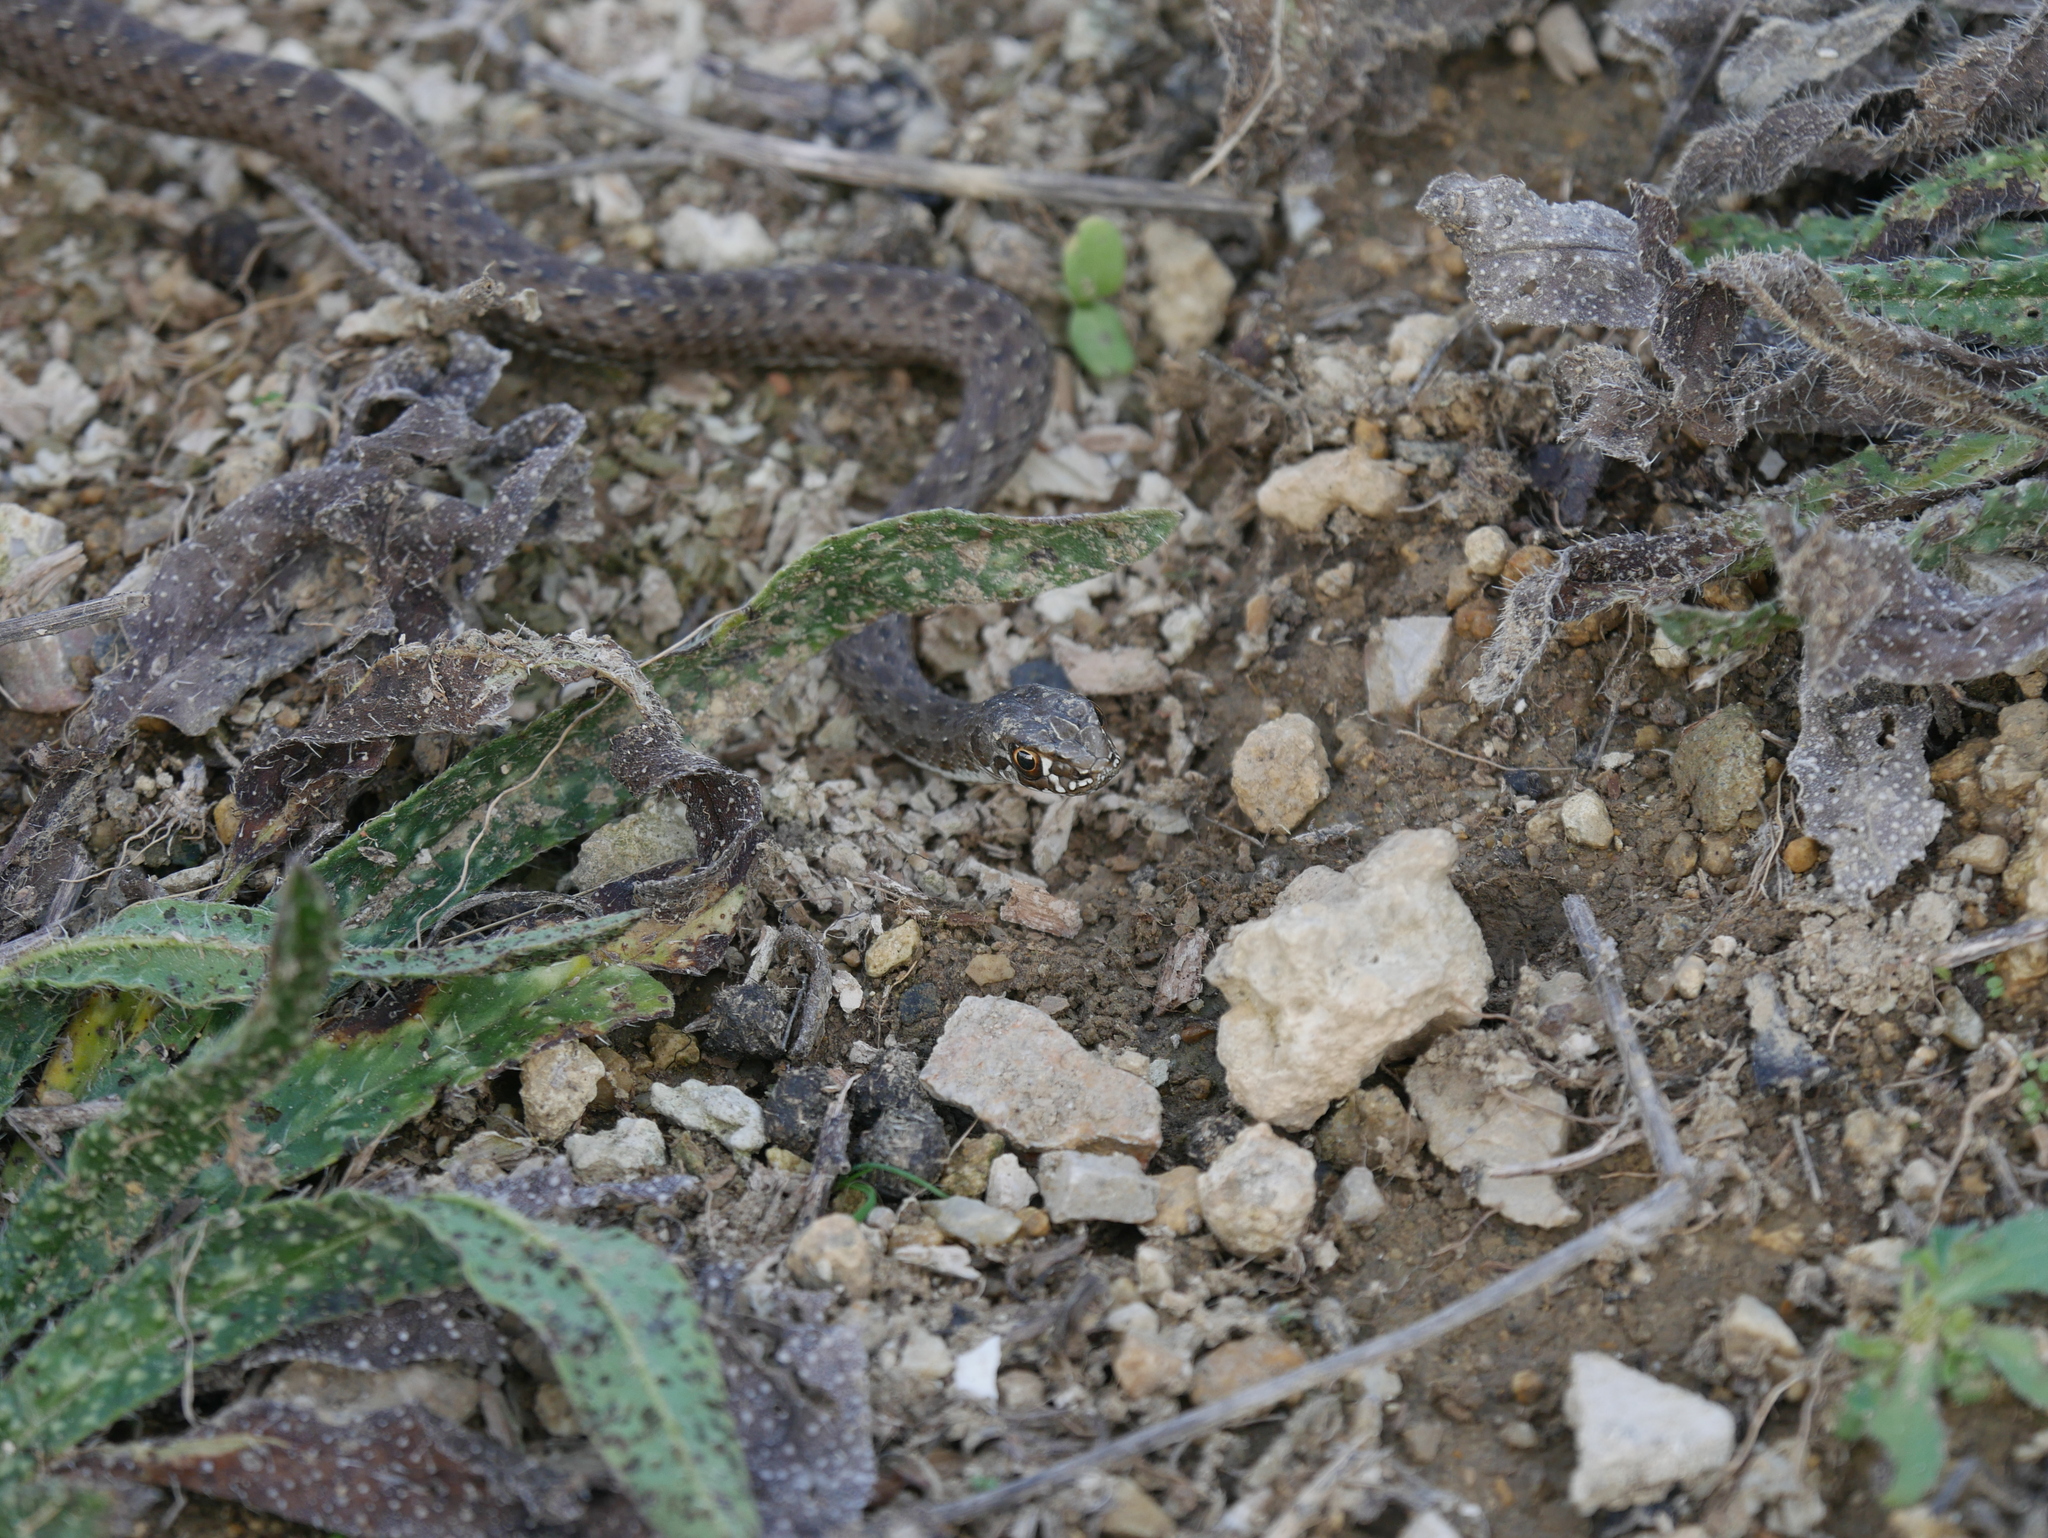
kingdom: Animalia
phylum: Chordata
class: Squamata
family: Psammophiidae
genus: Malpolon
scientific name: Malpolon monspessulanus
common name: Montpellier snake
